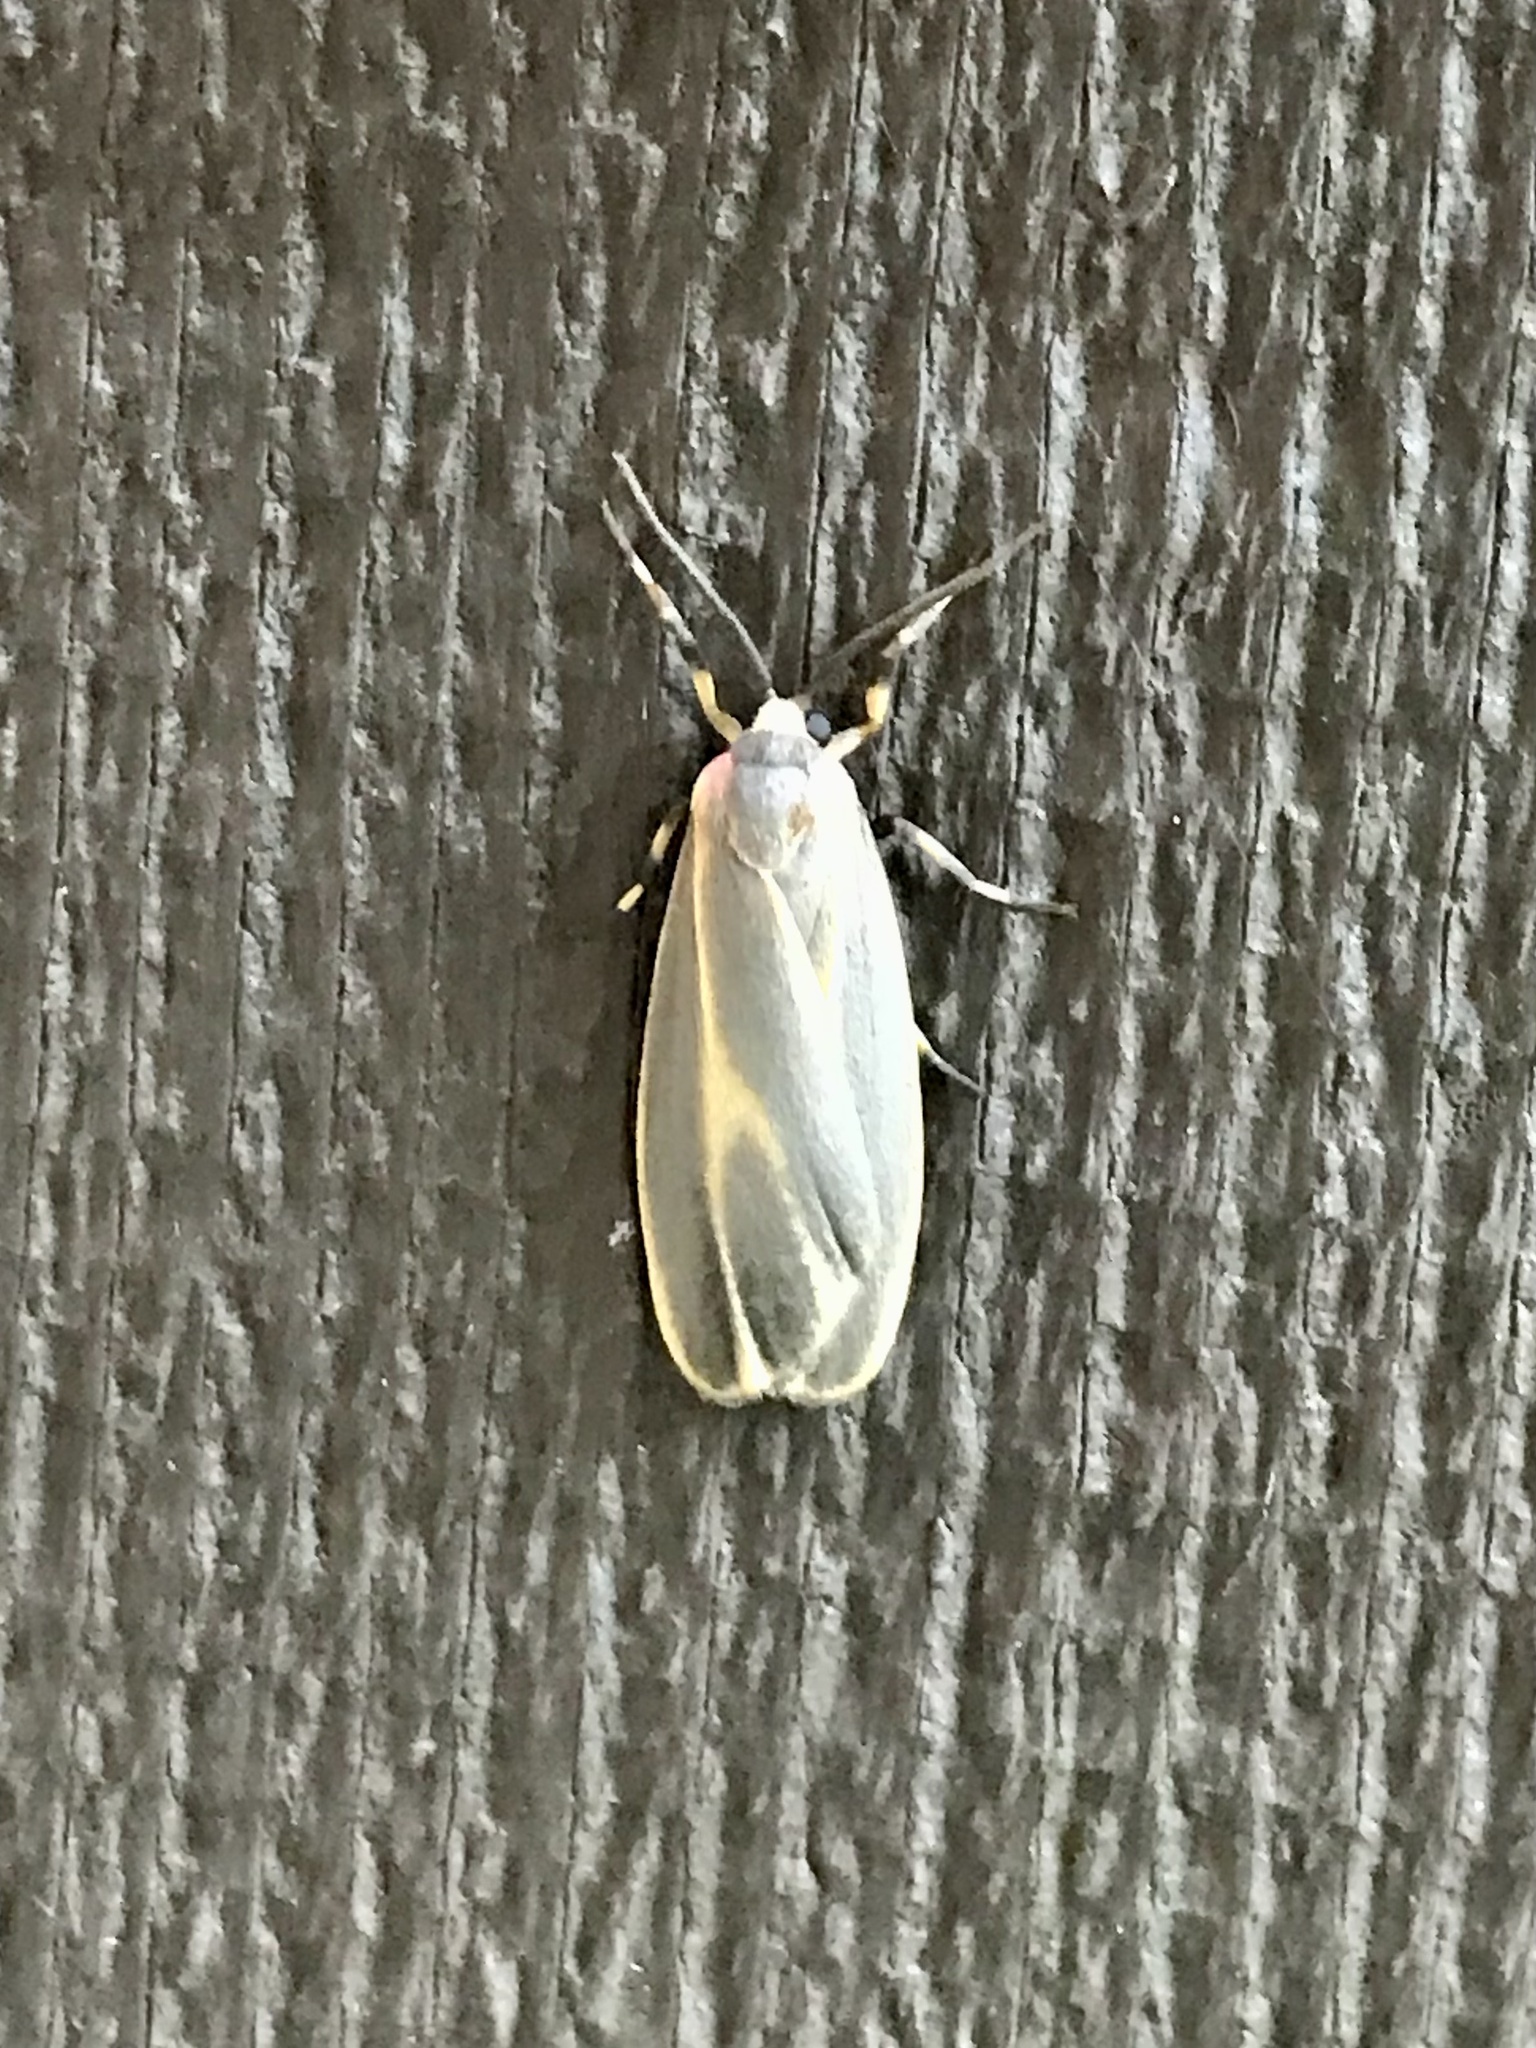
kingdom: Animalia
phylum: Arthropoda
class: Insecta
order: Lepidoptera
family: Erebidae
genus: Hypoprepia
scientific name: Hypoprepia fucosa
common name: Painted lichen moth
